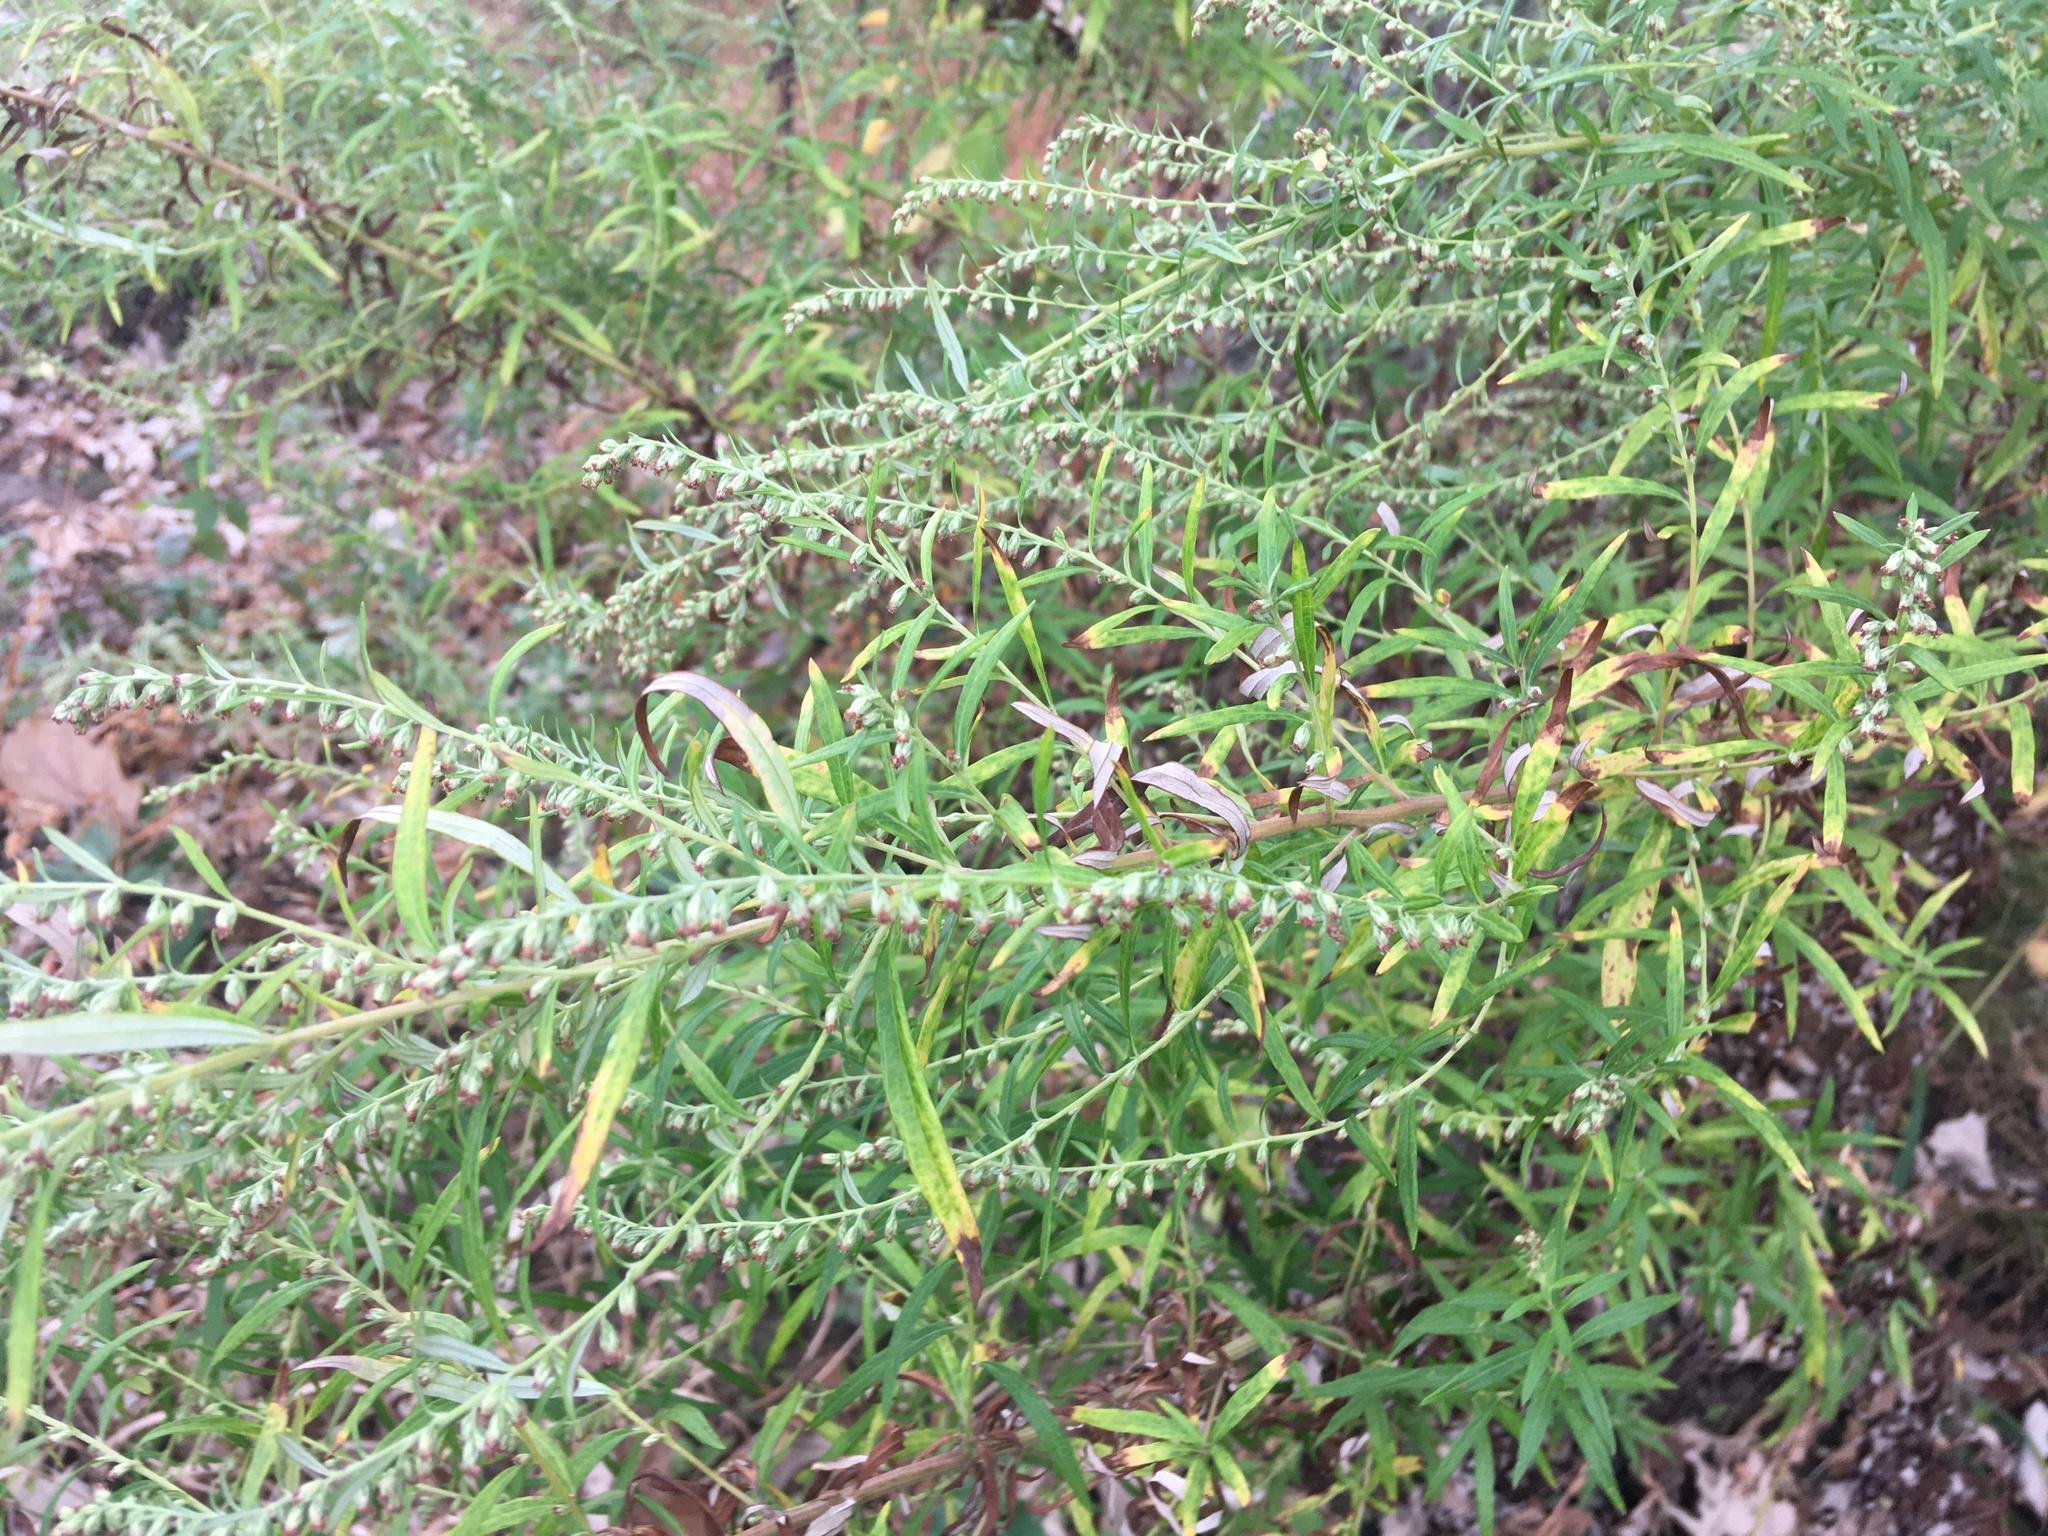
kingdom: Plantae
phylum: Tracheophyta
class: Magnoliopsida
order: Asterales
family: Asteraceae
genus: Artemisia
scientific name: Artemisia vulgaris
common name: Mugwort
